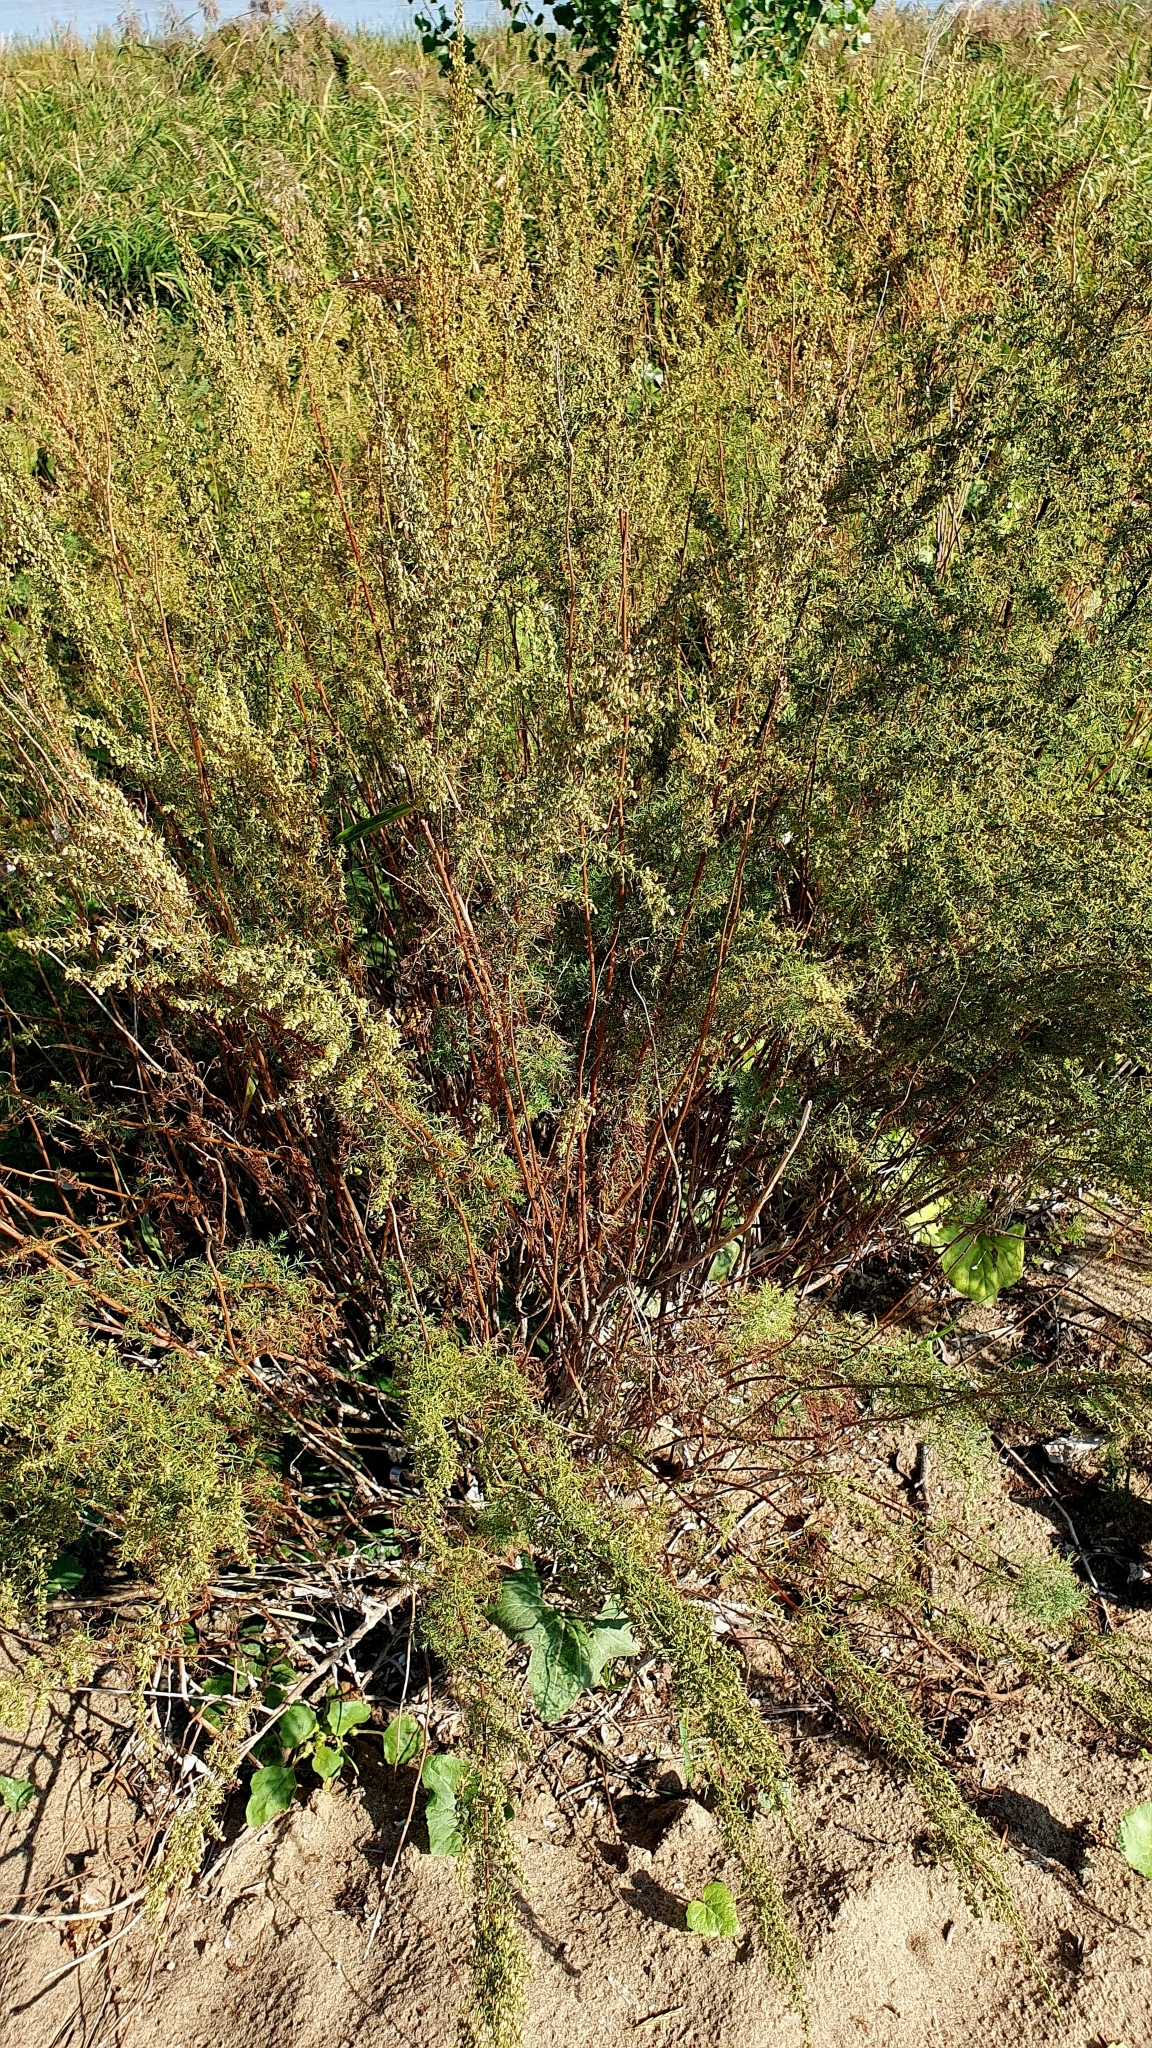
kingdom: Plantae
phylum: Tracheophyta
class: Magnoliopsida
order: Asterales
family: Asteraceae
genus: Artemisia
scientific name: Artemisia abrotanum
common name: Southernwood
